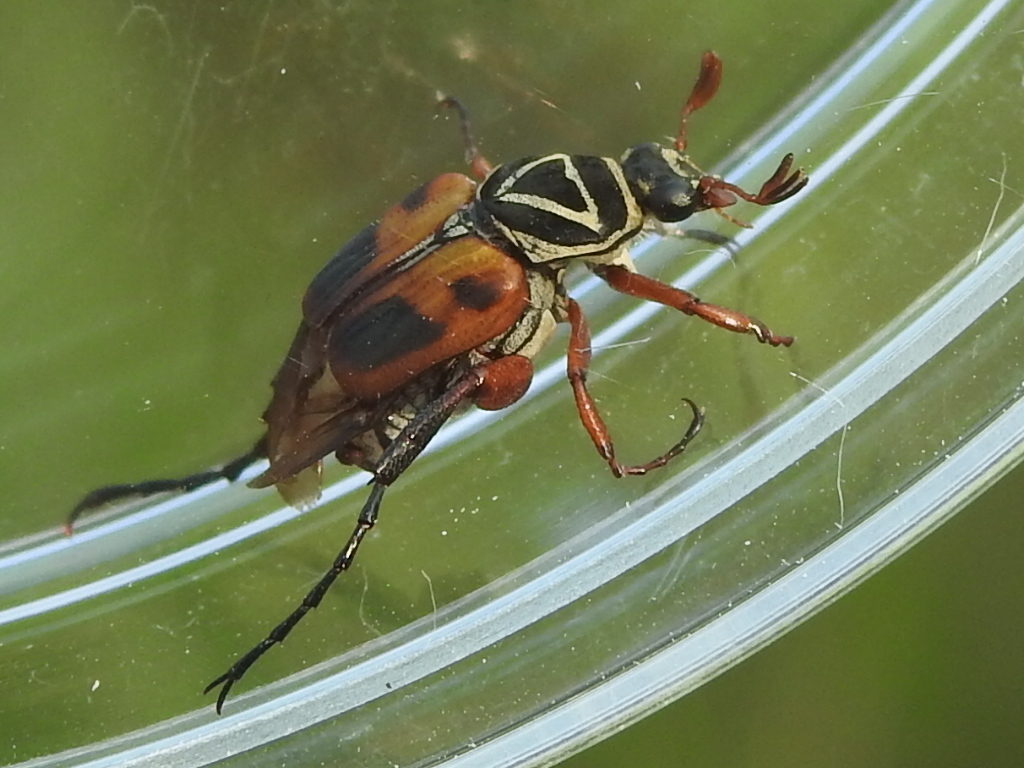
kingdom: Animalia
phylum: Arthropoda
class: Insecta
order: Coleoptera
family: Scarabaeidae
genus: Trigonopeltastes
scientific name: Trigonopeltastes delta
